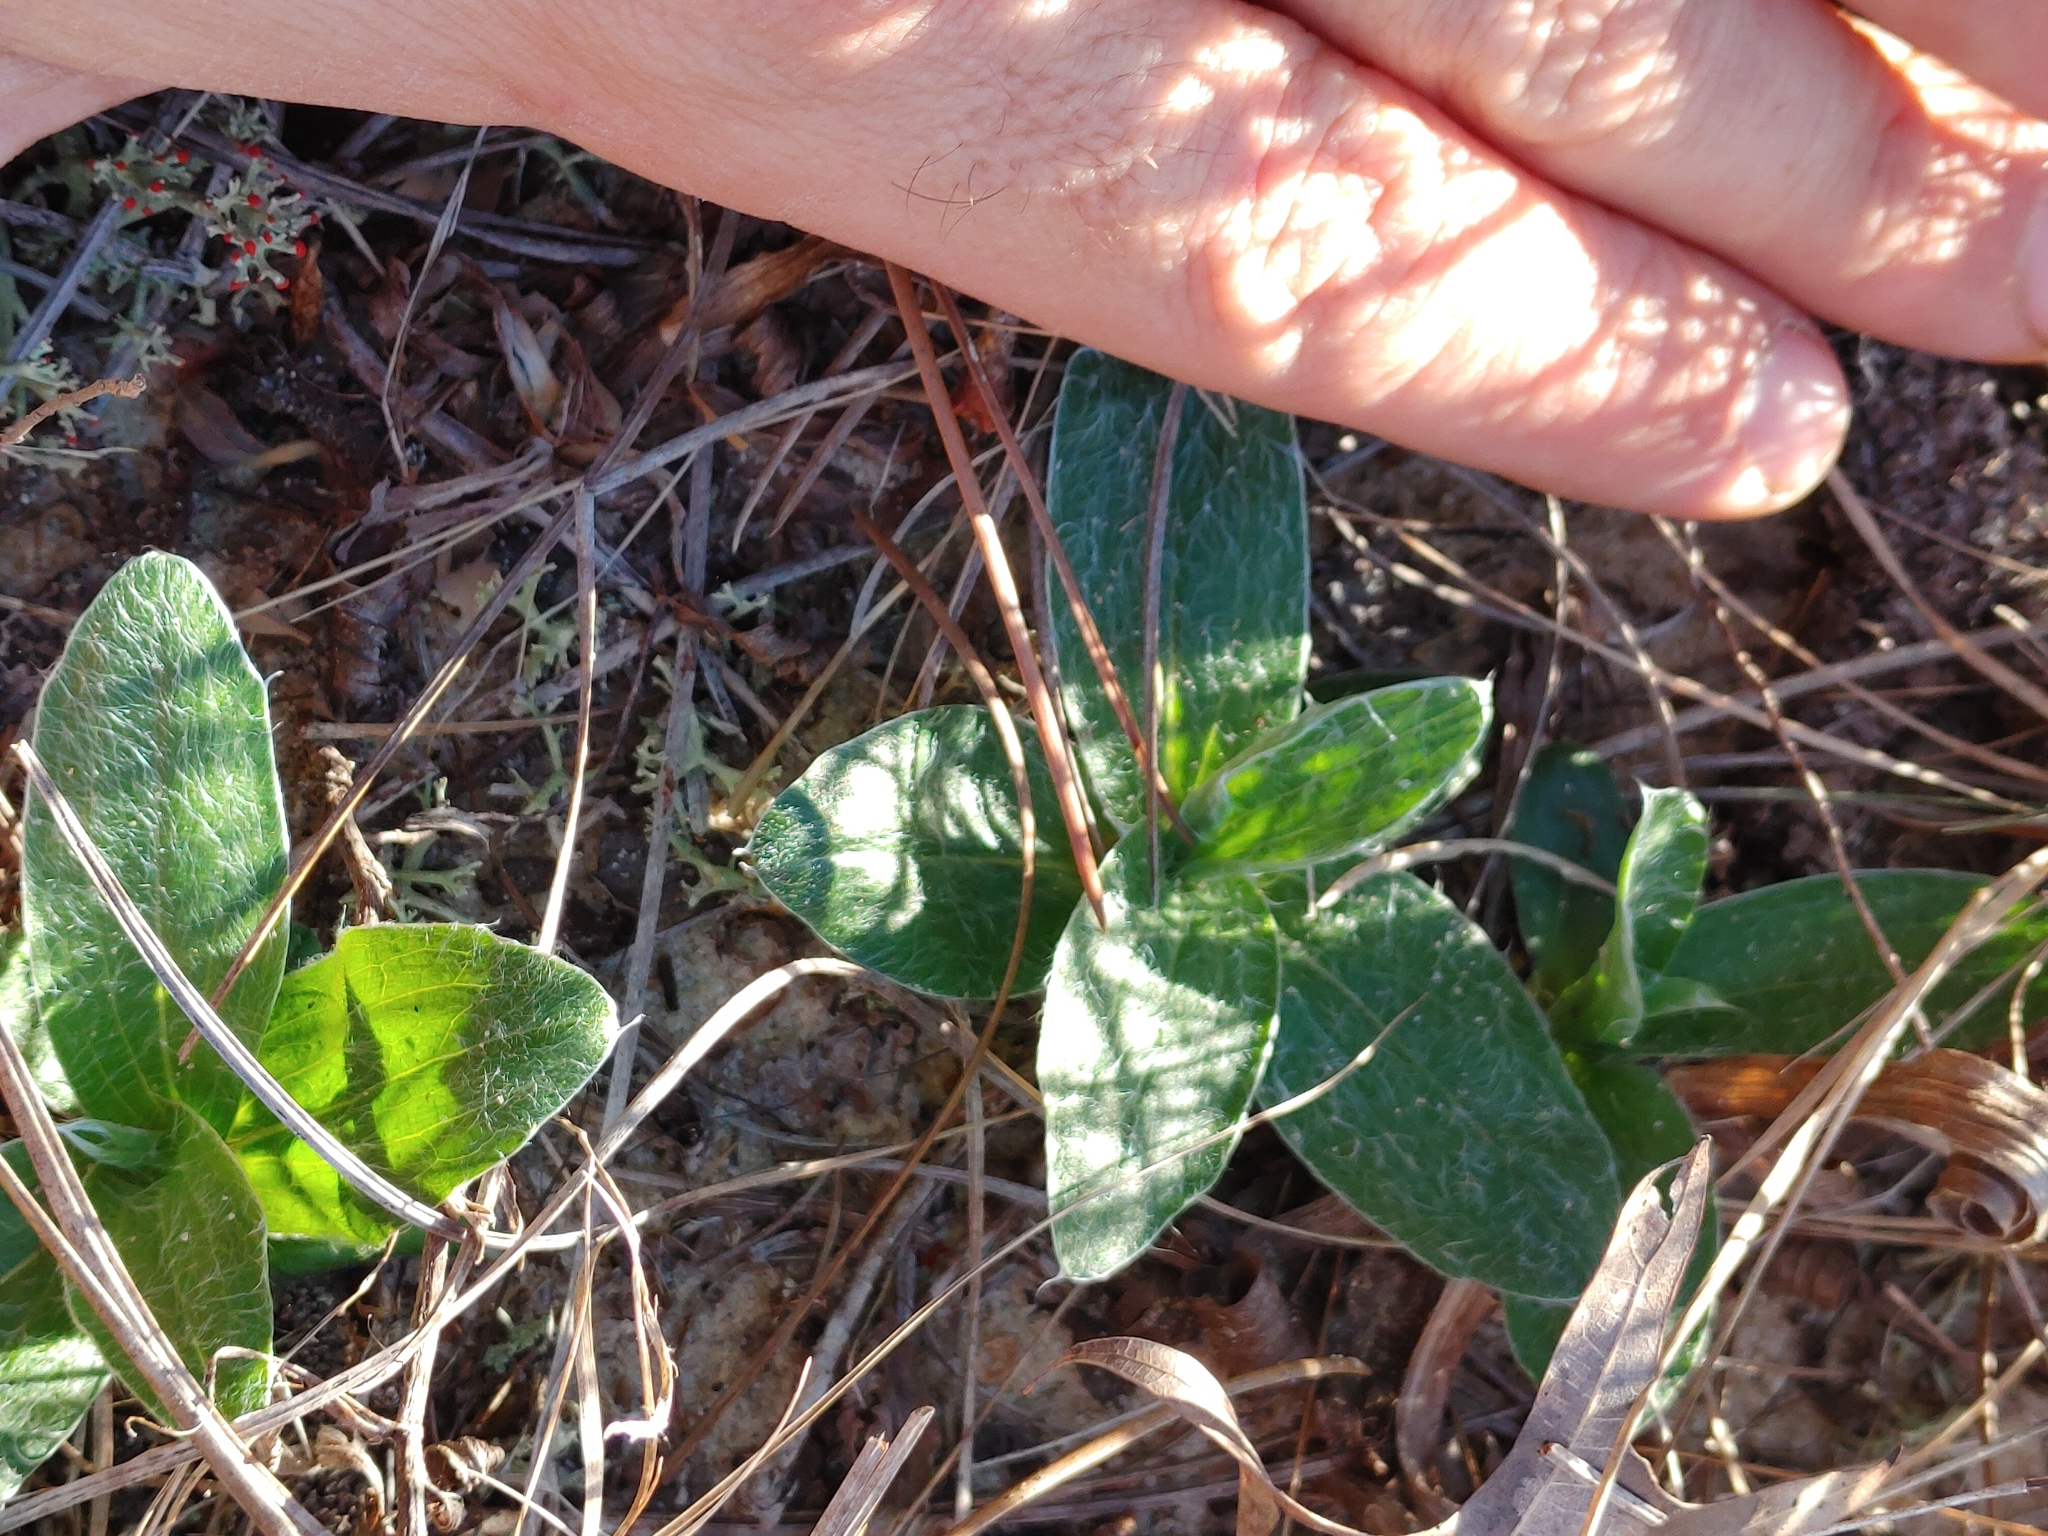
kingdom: Plantae
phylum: Tracheophyta
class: Magnoliopsida
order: Asterales
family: Asteraceae
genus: Pityopsis
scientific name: Pityopsis flexuosa
